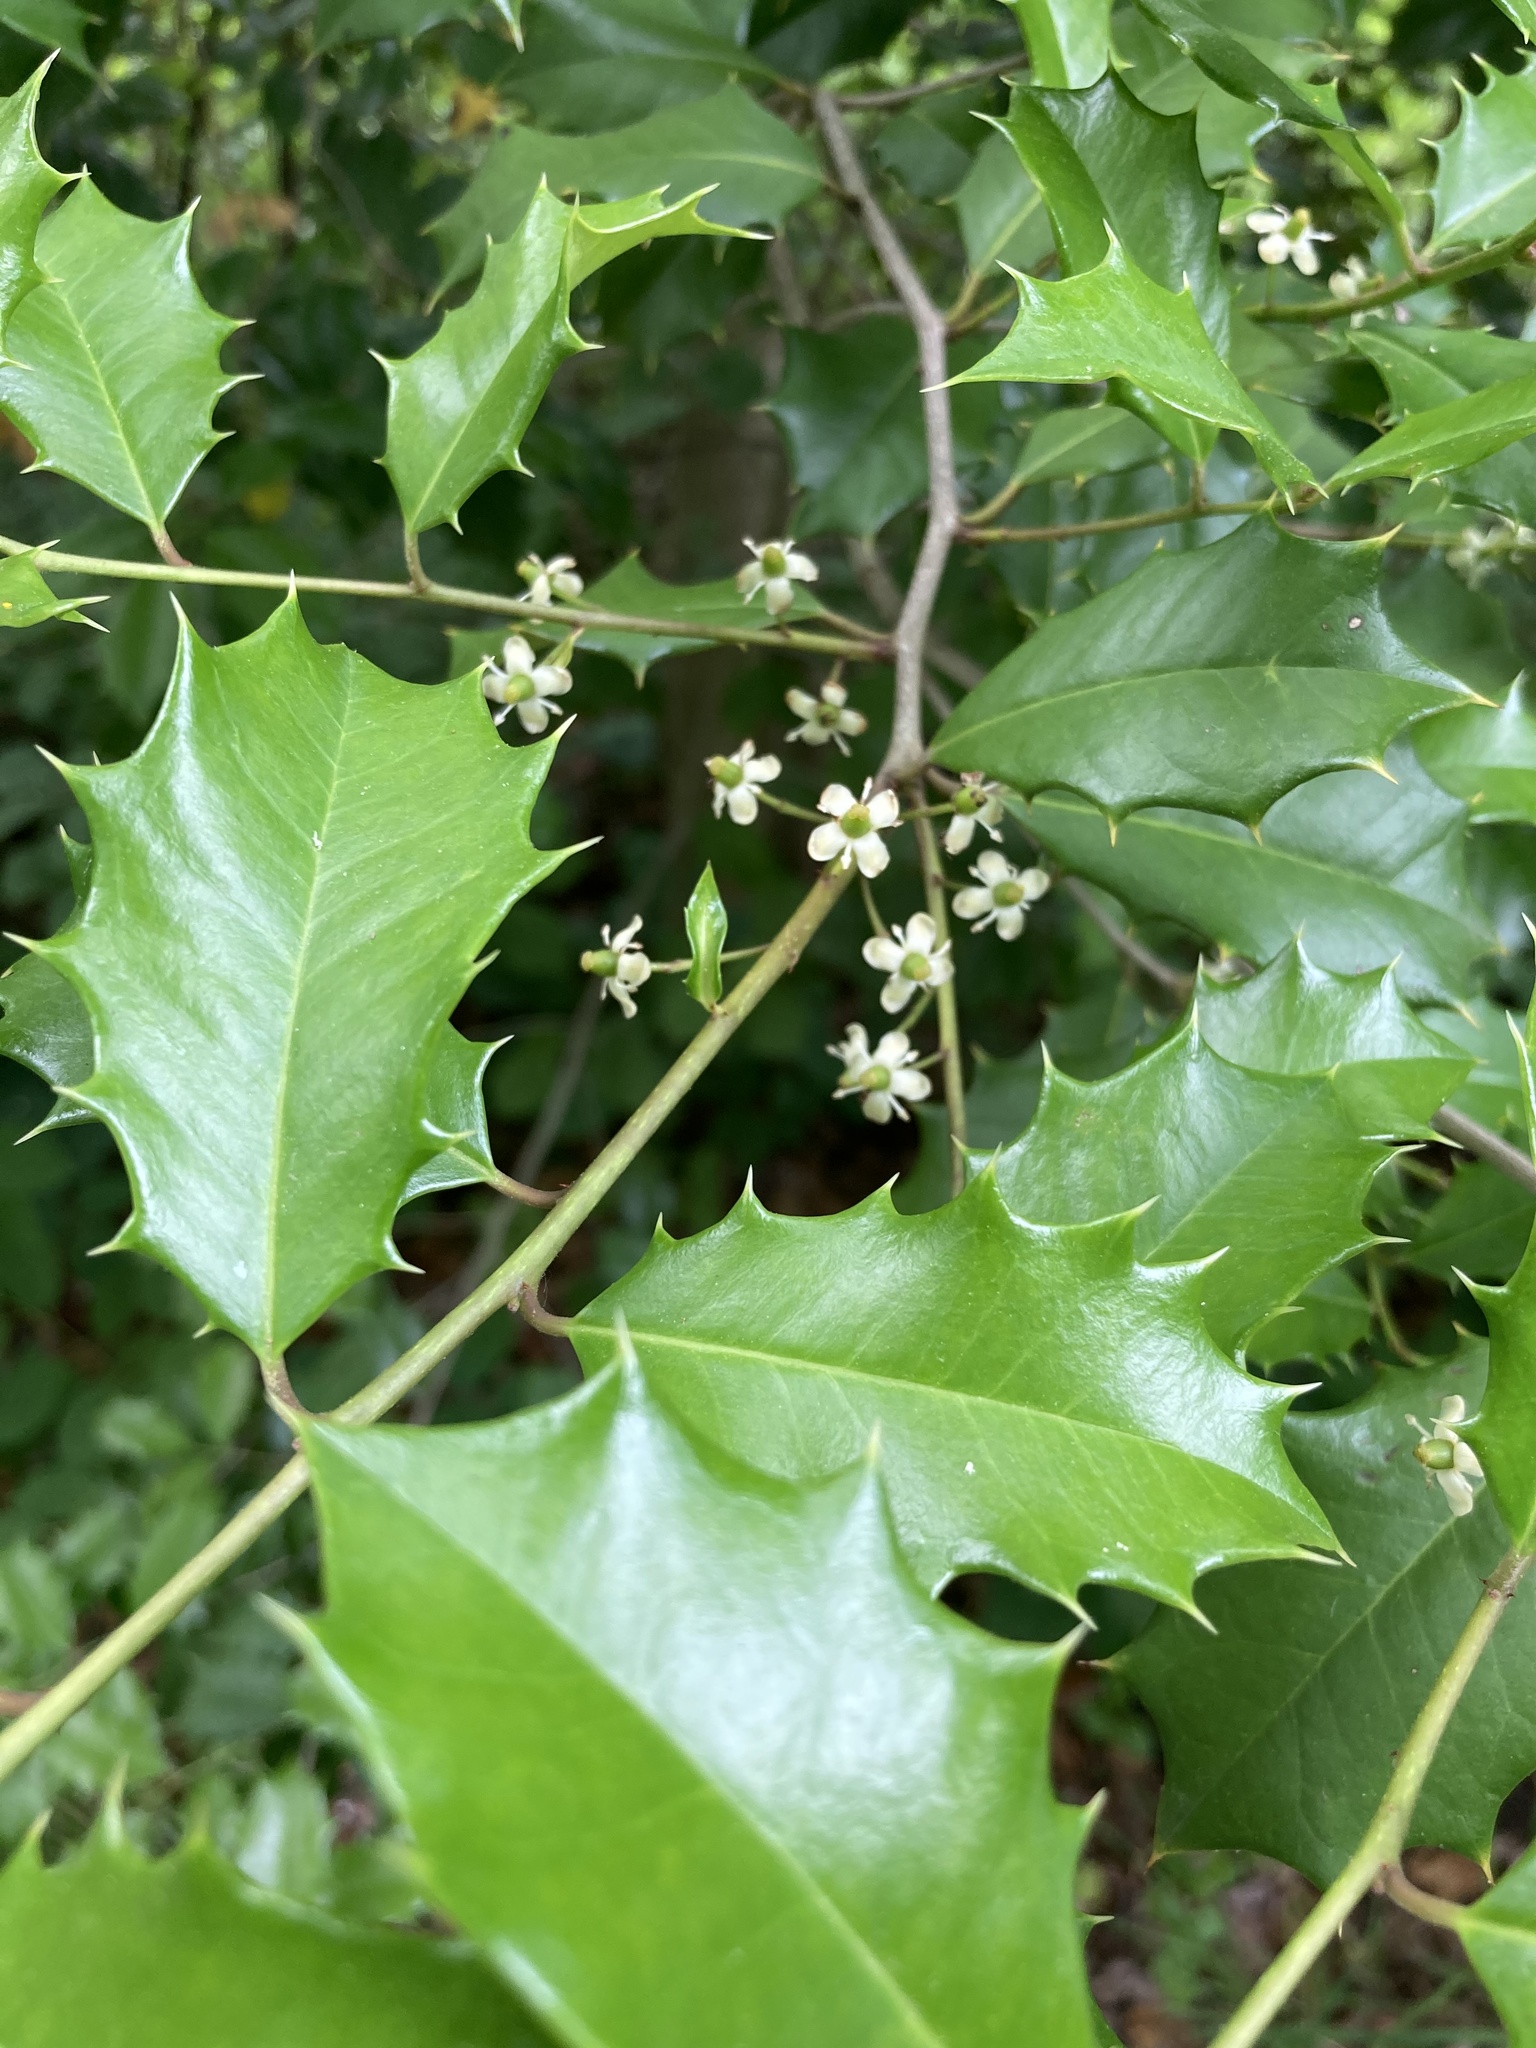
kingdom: Plantae
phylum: Tracheophyta
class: Magnoliopsida
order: Aquifoliales
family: Aquifoliaceae
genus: Ilex
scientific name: Ilex opaca
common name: American holly
